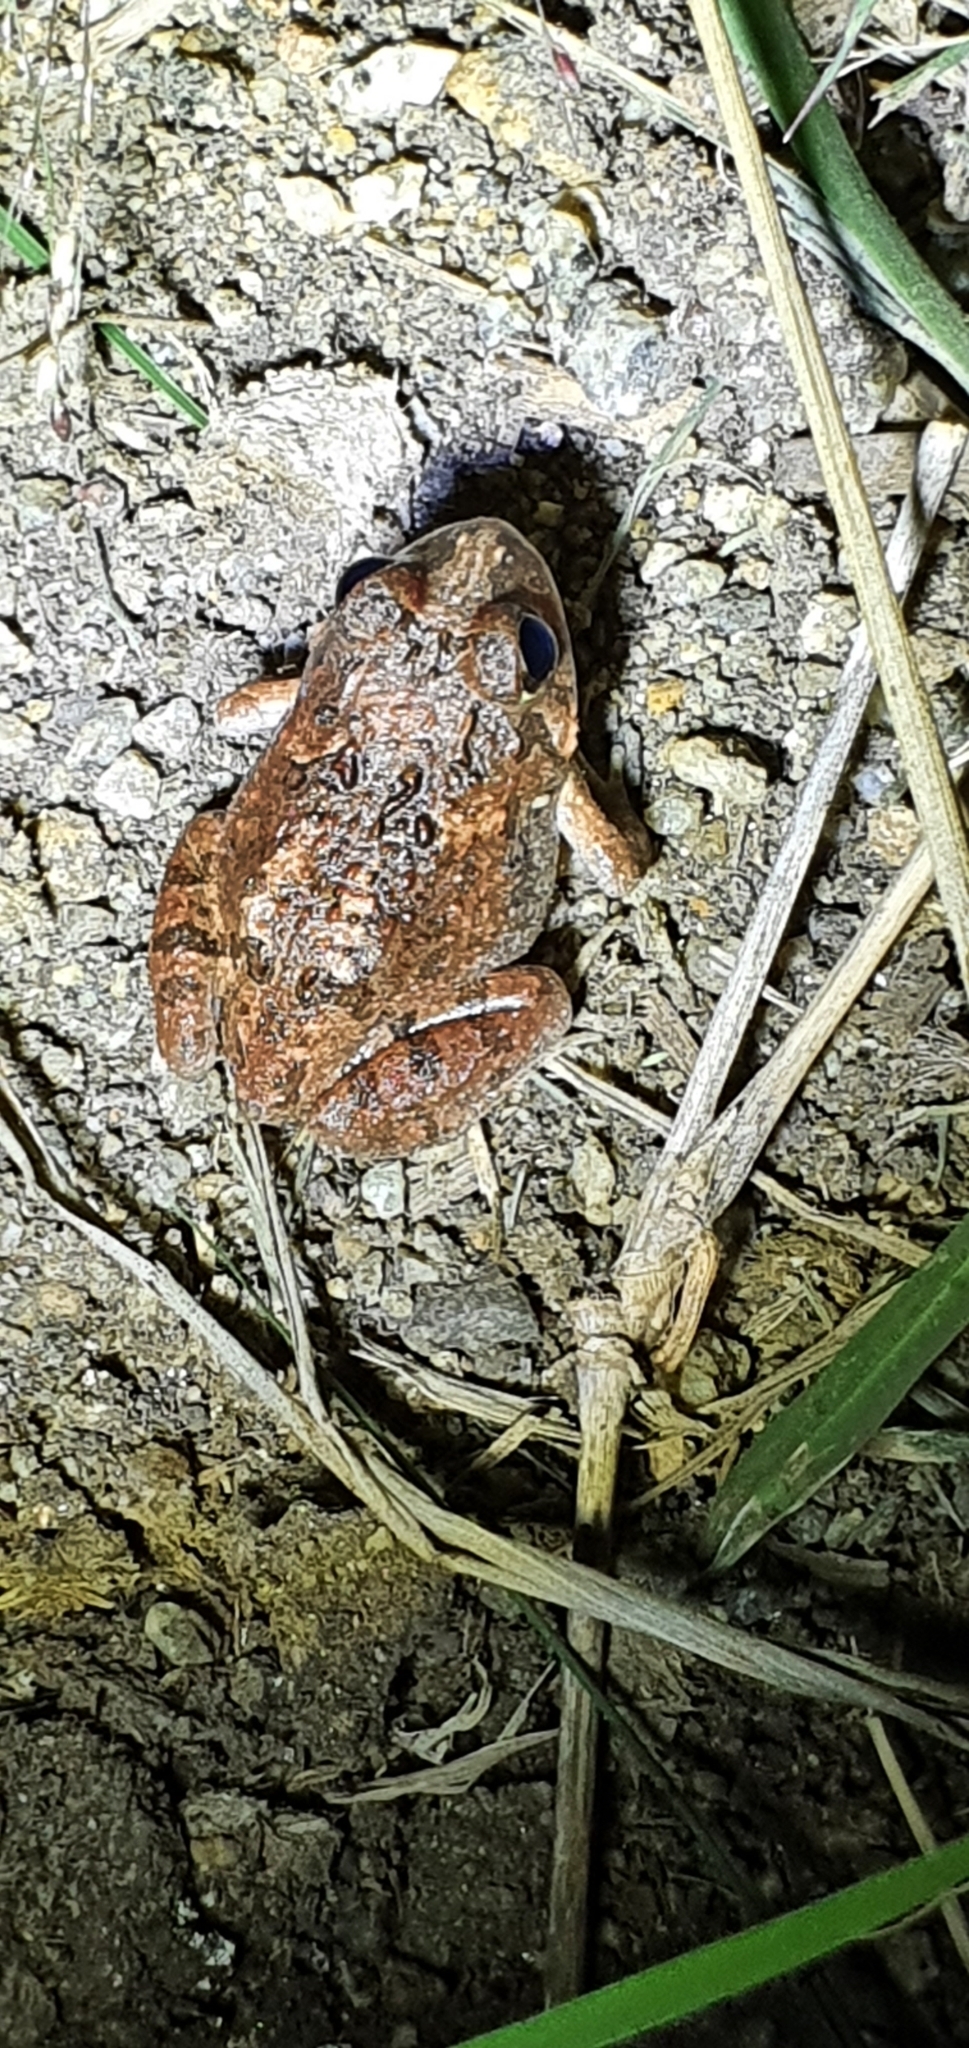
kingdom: Animalia
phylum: Chordata
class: Amphibia
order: Anura
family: Limnodynastidae
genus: Platyplectrum
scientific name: Platyplectrum ornatum
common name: Ornate burrowing frog
